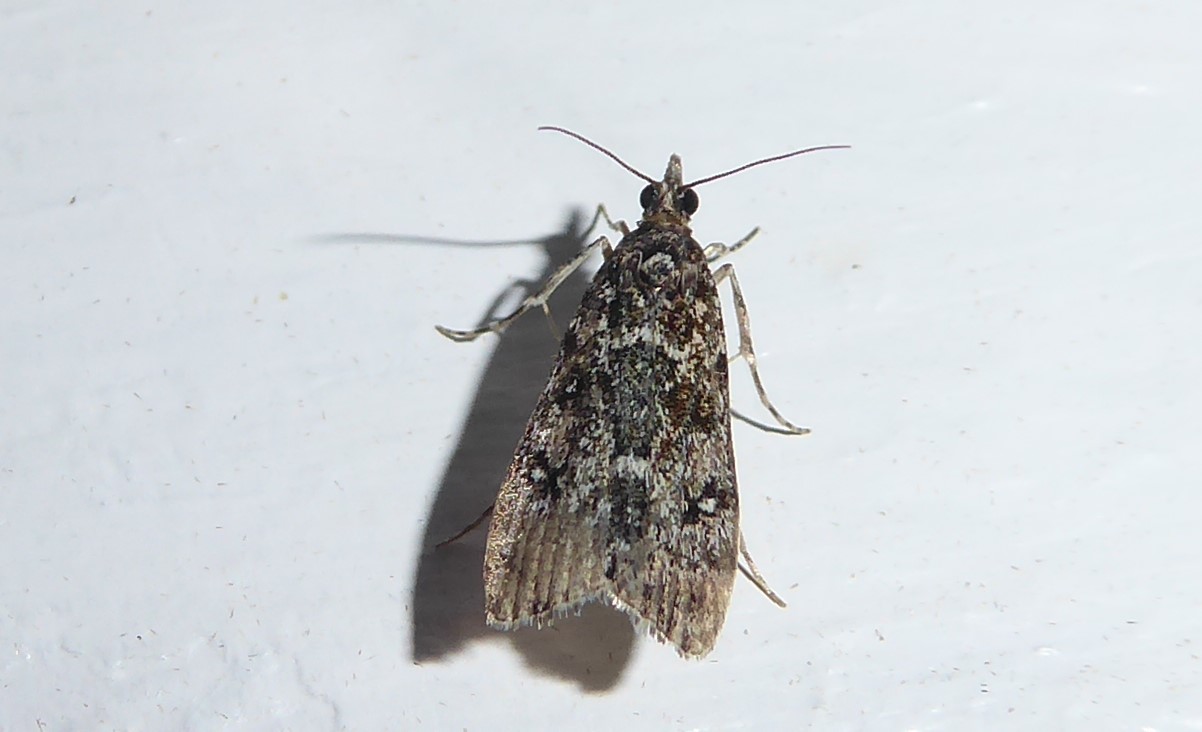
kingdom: Animalia
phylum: Arthropoda
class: Insecta
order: Lepidoptera
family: Crambidae
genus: Eudonia
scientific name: Eudonia philerga
